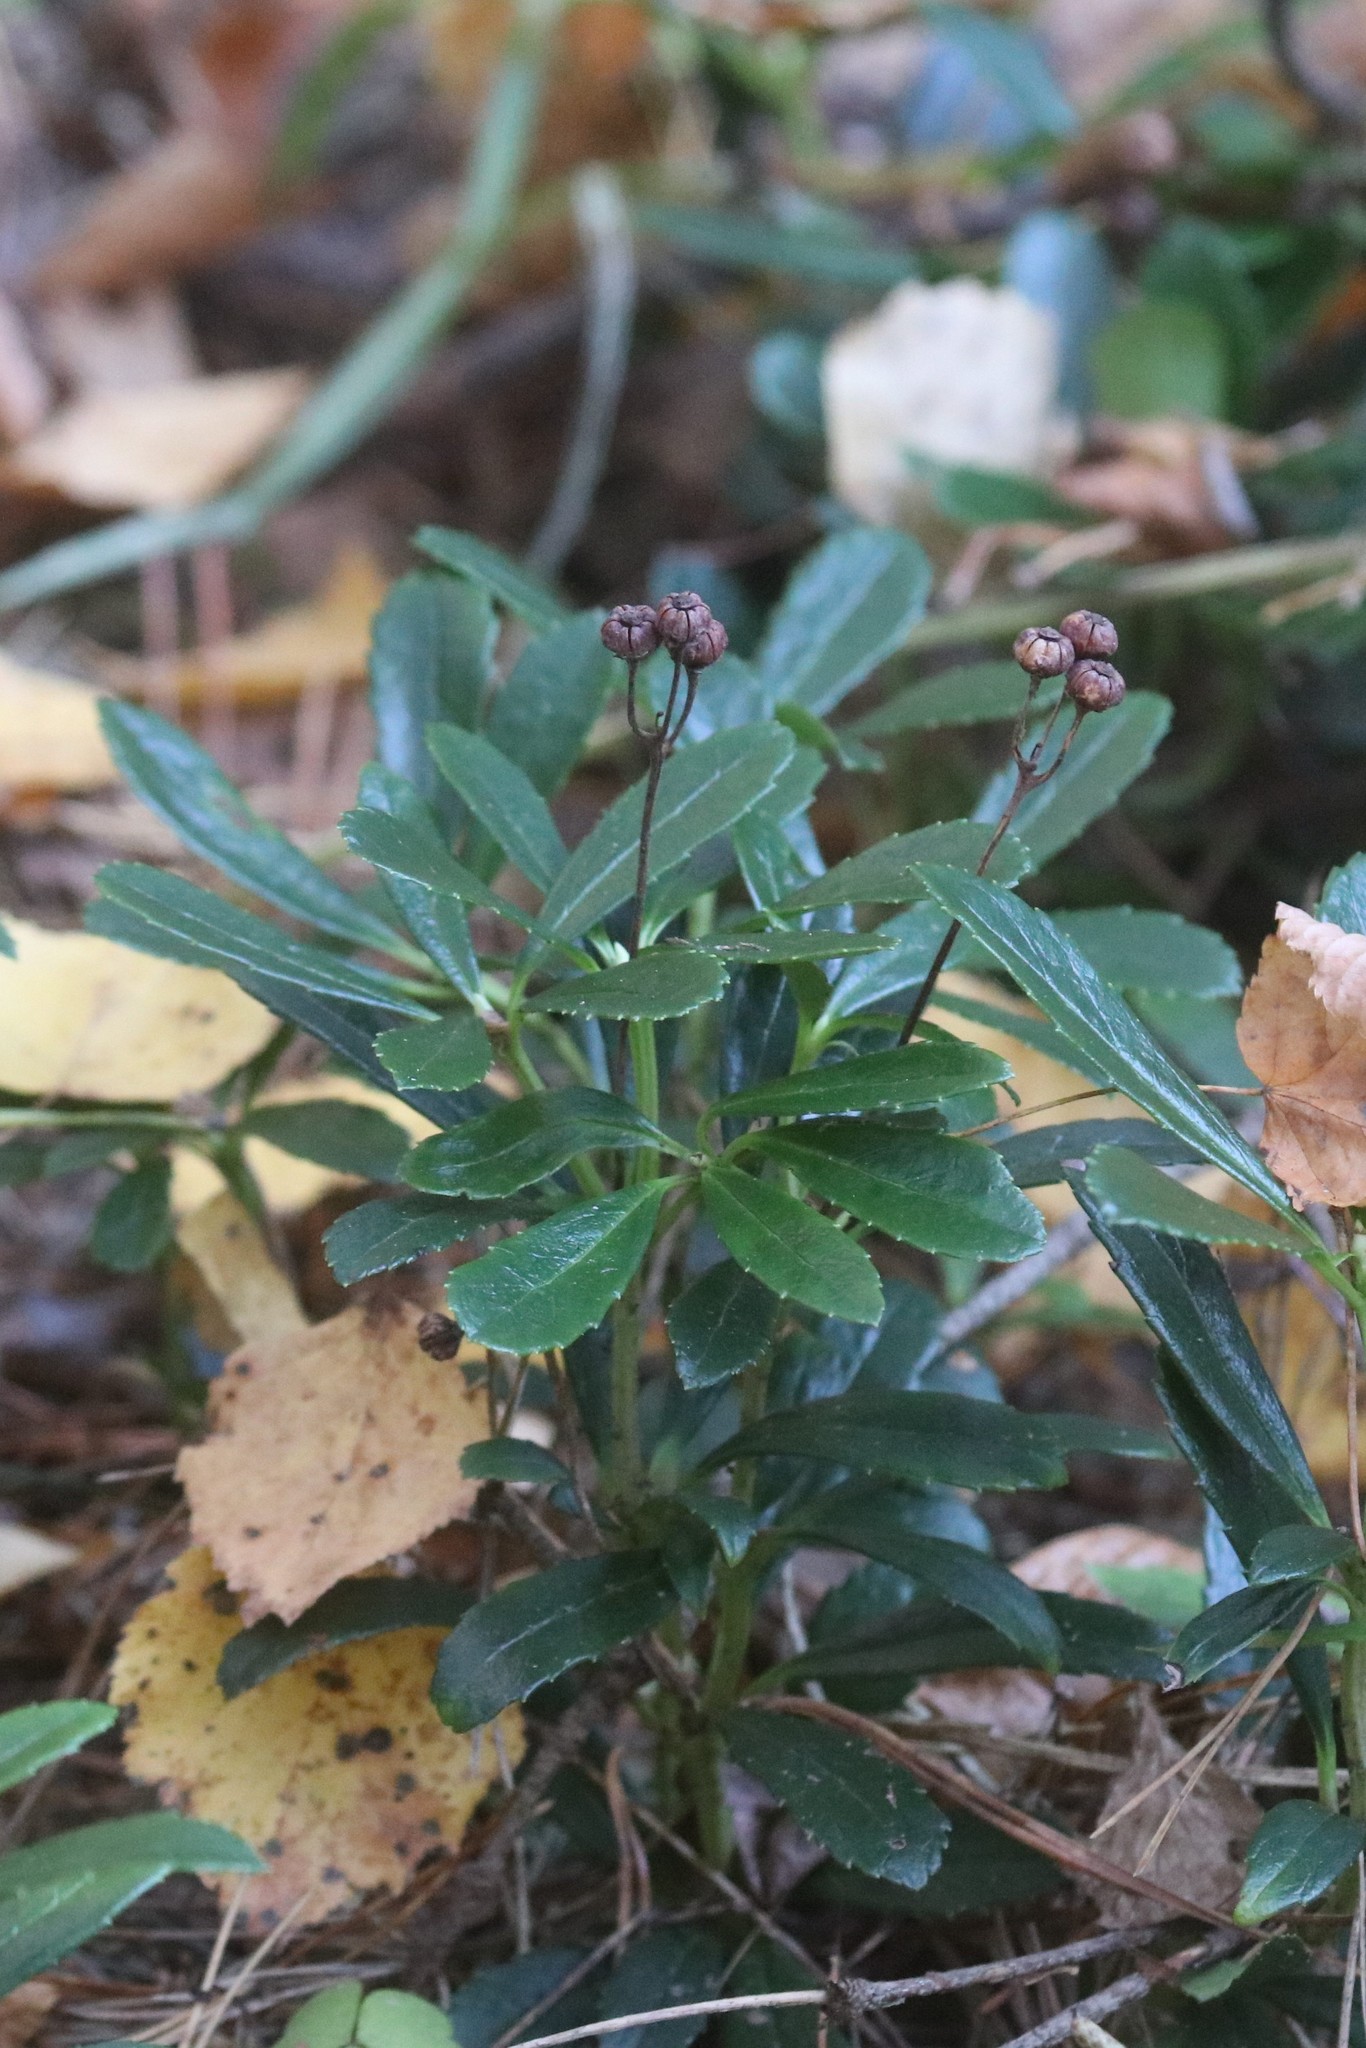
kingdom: Plantae
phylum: Tracheophyta
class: Magnoliopsida
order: Ericales
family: Ericaceae
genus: Chimaphila
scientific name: Chimaphila umbellata
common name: Pipsissewa
